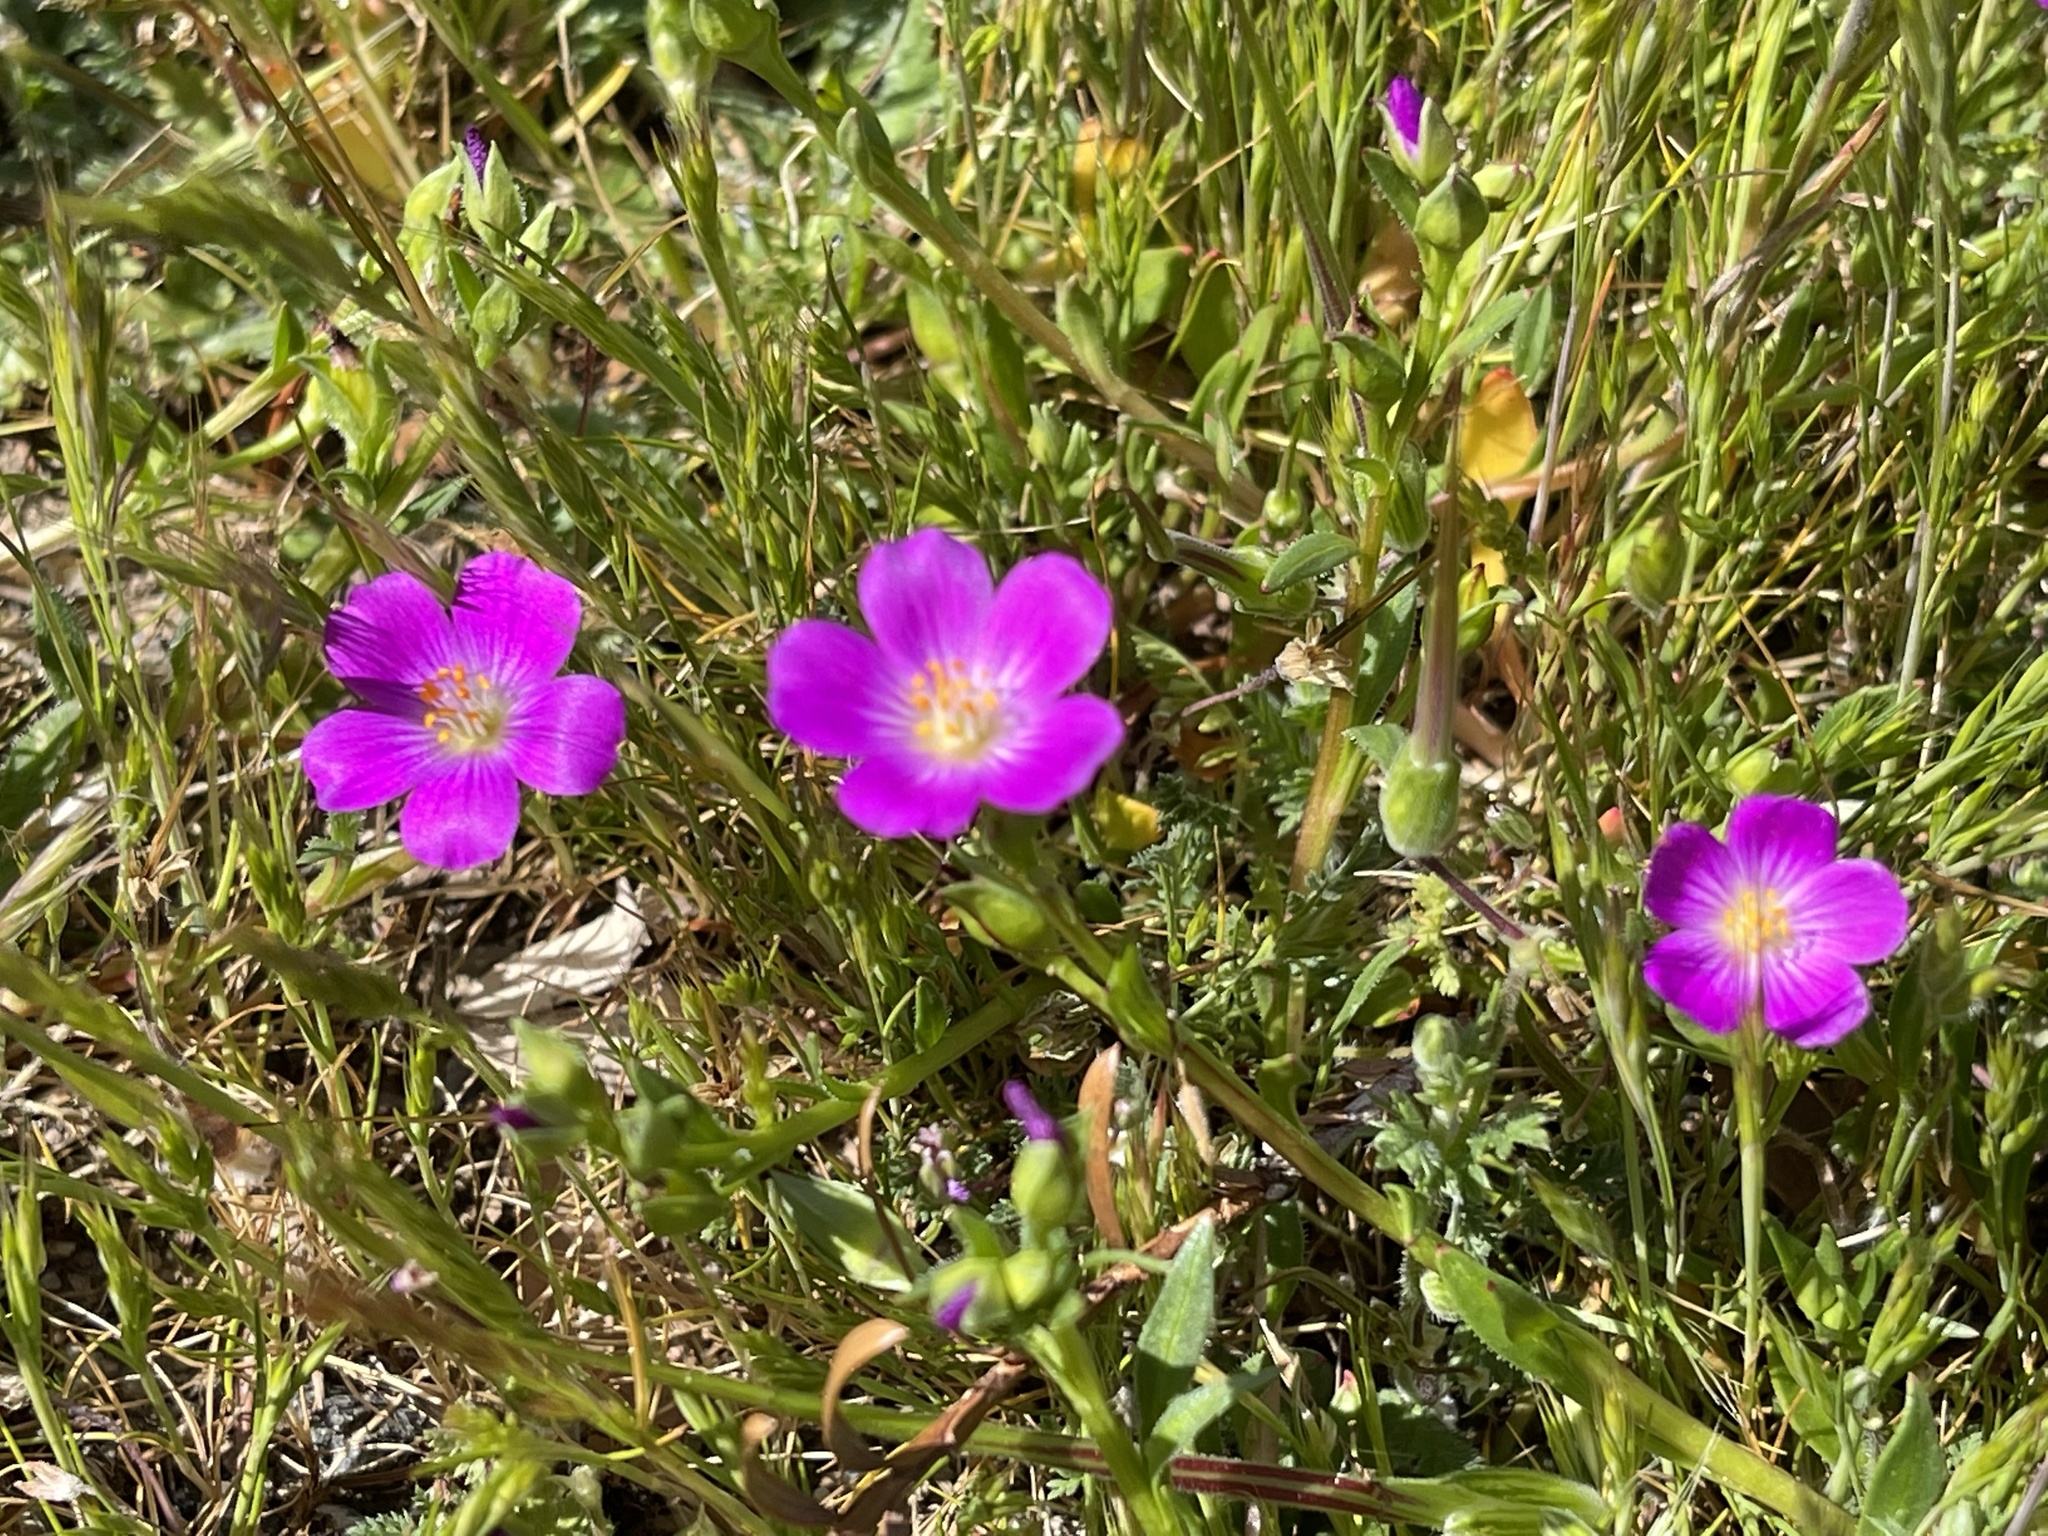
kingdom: Plantae
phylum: Tracheophyta
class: Magnoliopsida
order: Caryophyllales
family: Montiaceae
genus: Calandrinia
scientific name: Calandrinia menziesii
